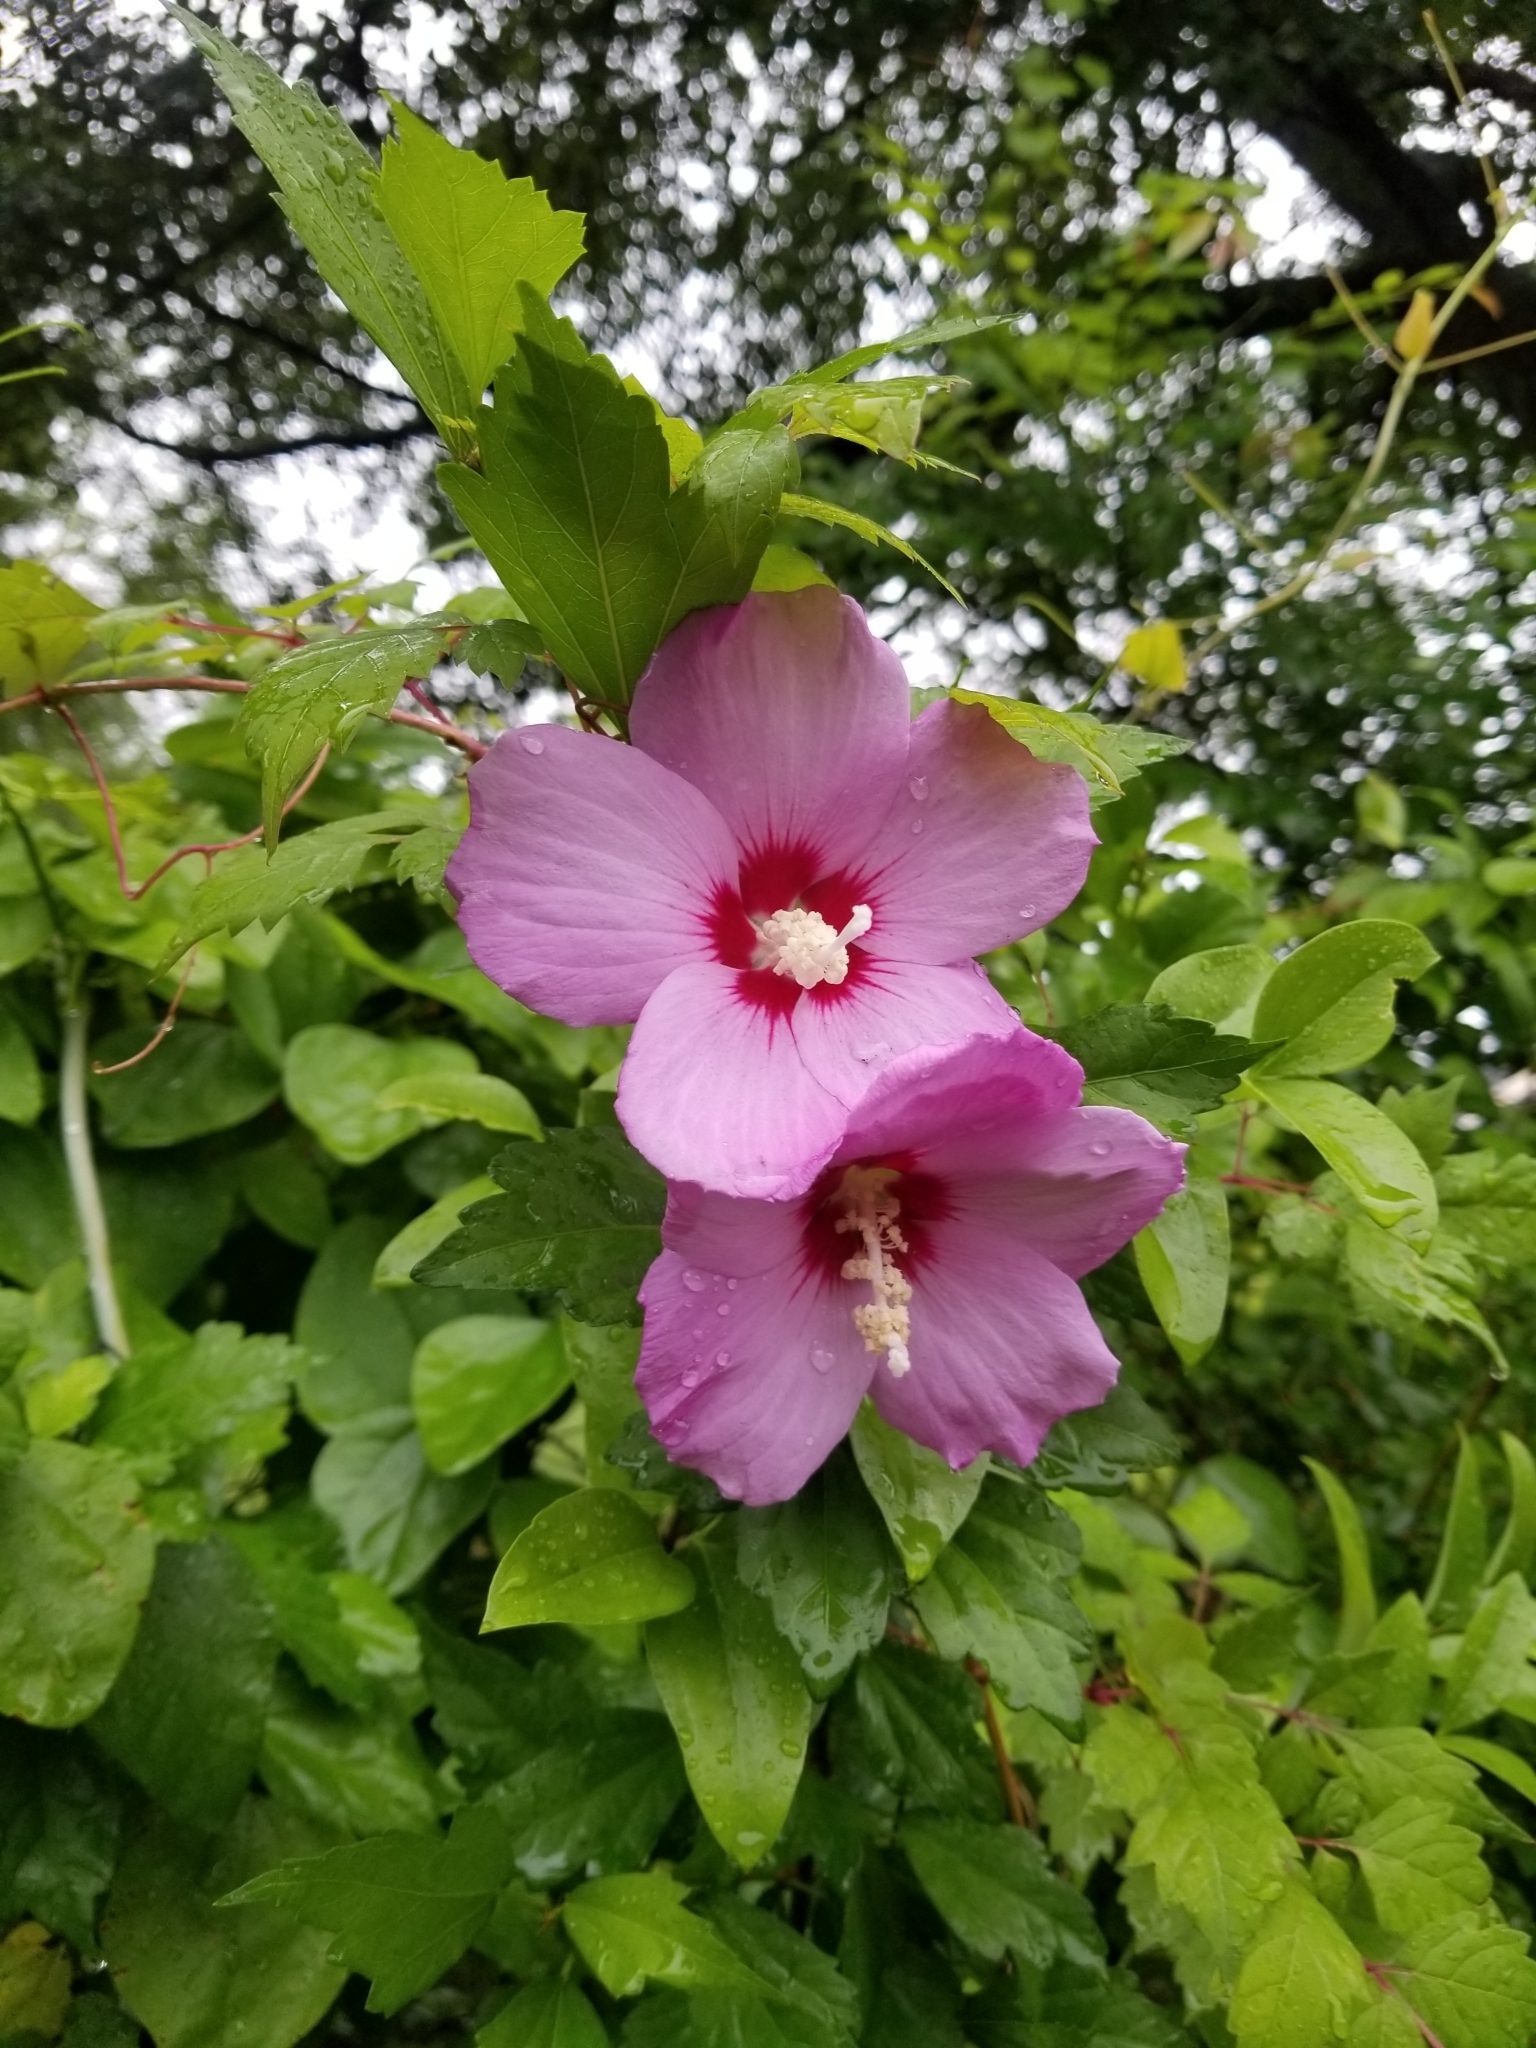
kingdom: Plantae
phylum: Tracheophyta
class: Magnoliopsida
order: Malvales
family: Malvaceae
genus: Hibiscus
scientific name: Hibiscus syriacus
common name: Syrian ketmia
